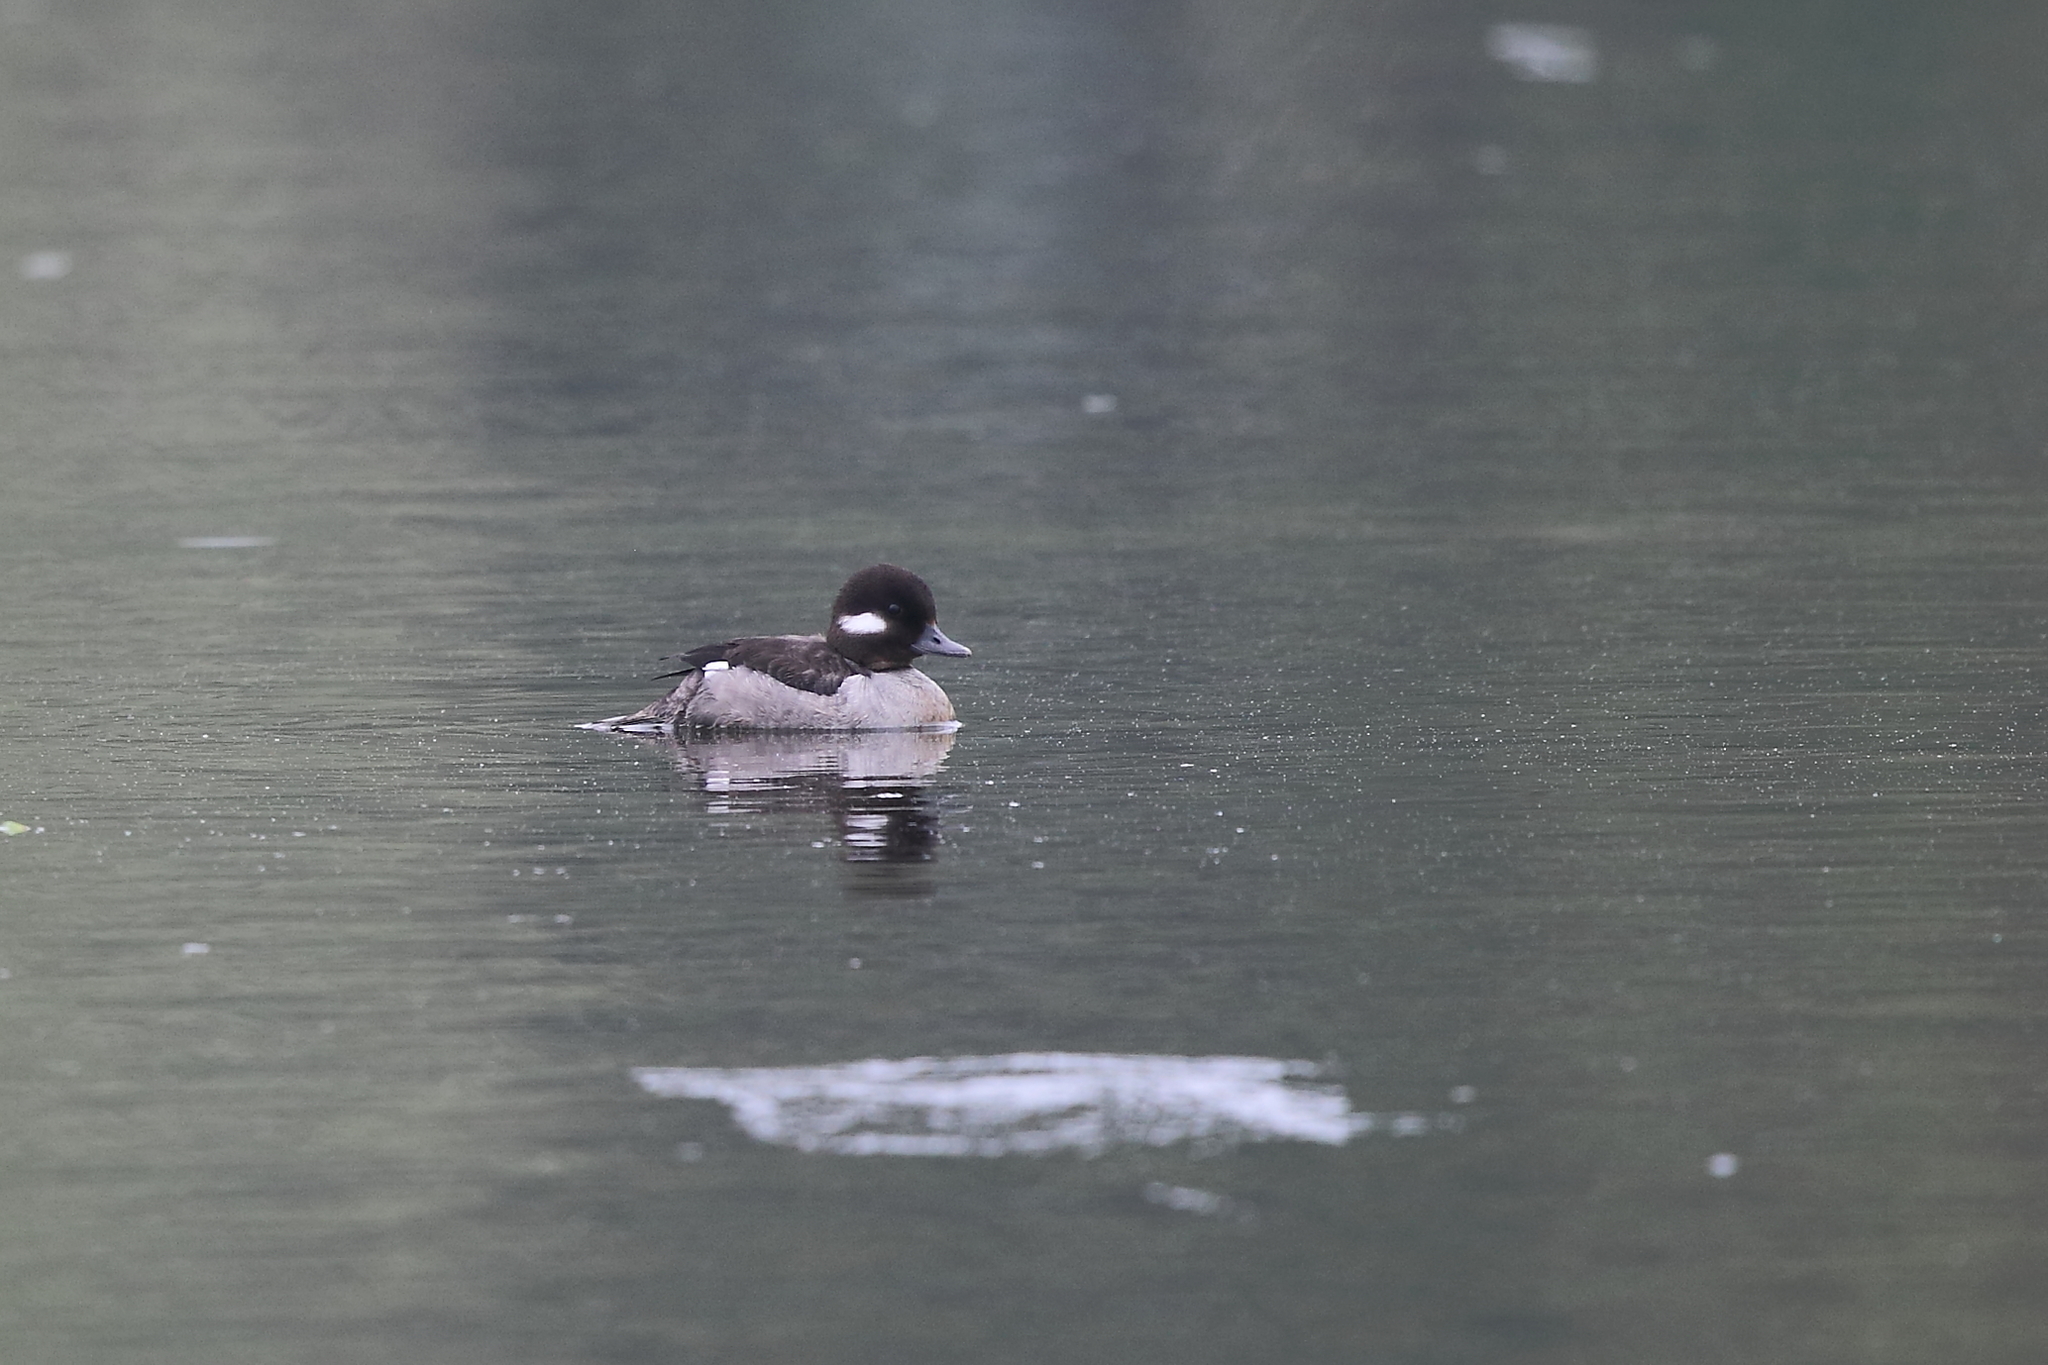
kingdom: Animalia
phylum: Chordata
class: Aves
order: Anseriformes
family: Anatidae
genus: Bucephala
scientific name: Bucephala albeola
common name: Bufflehead
